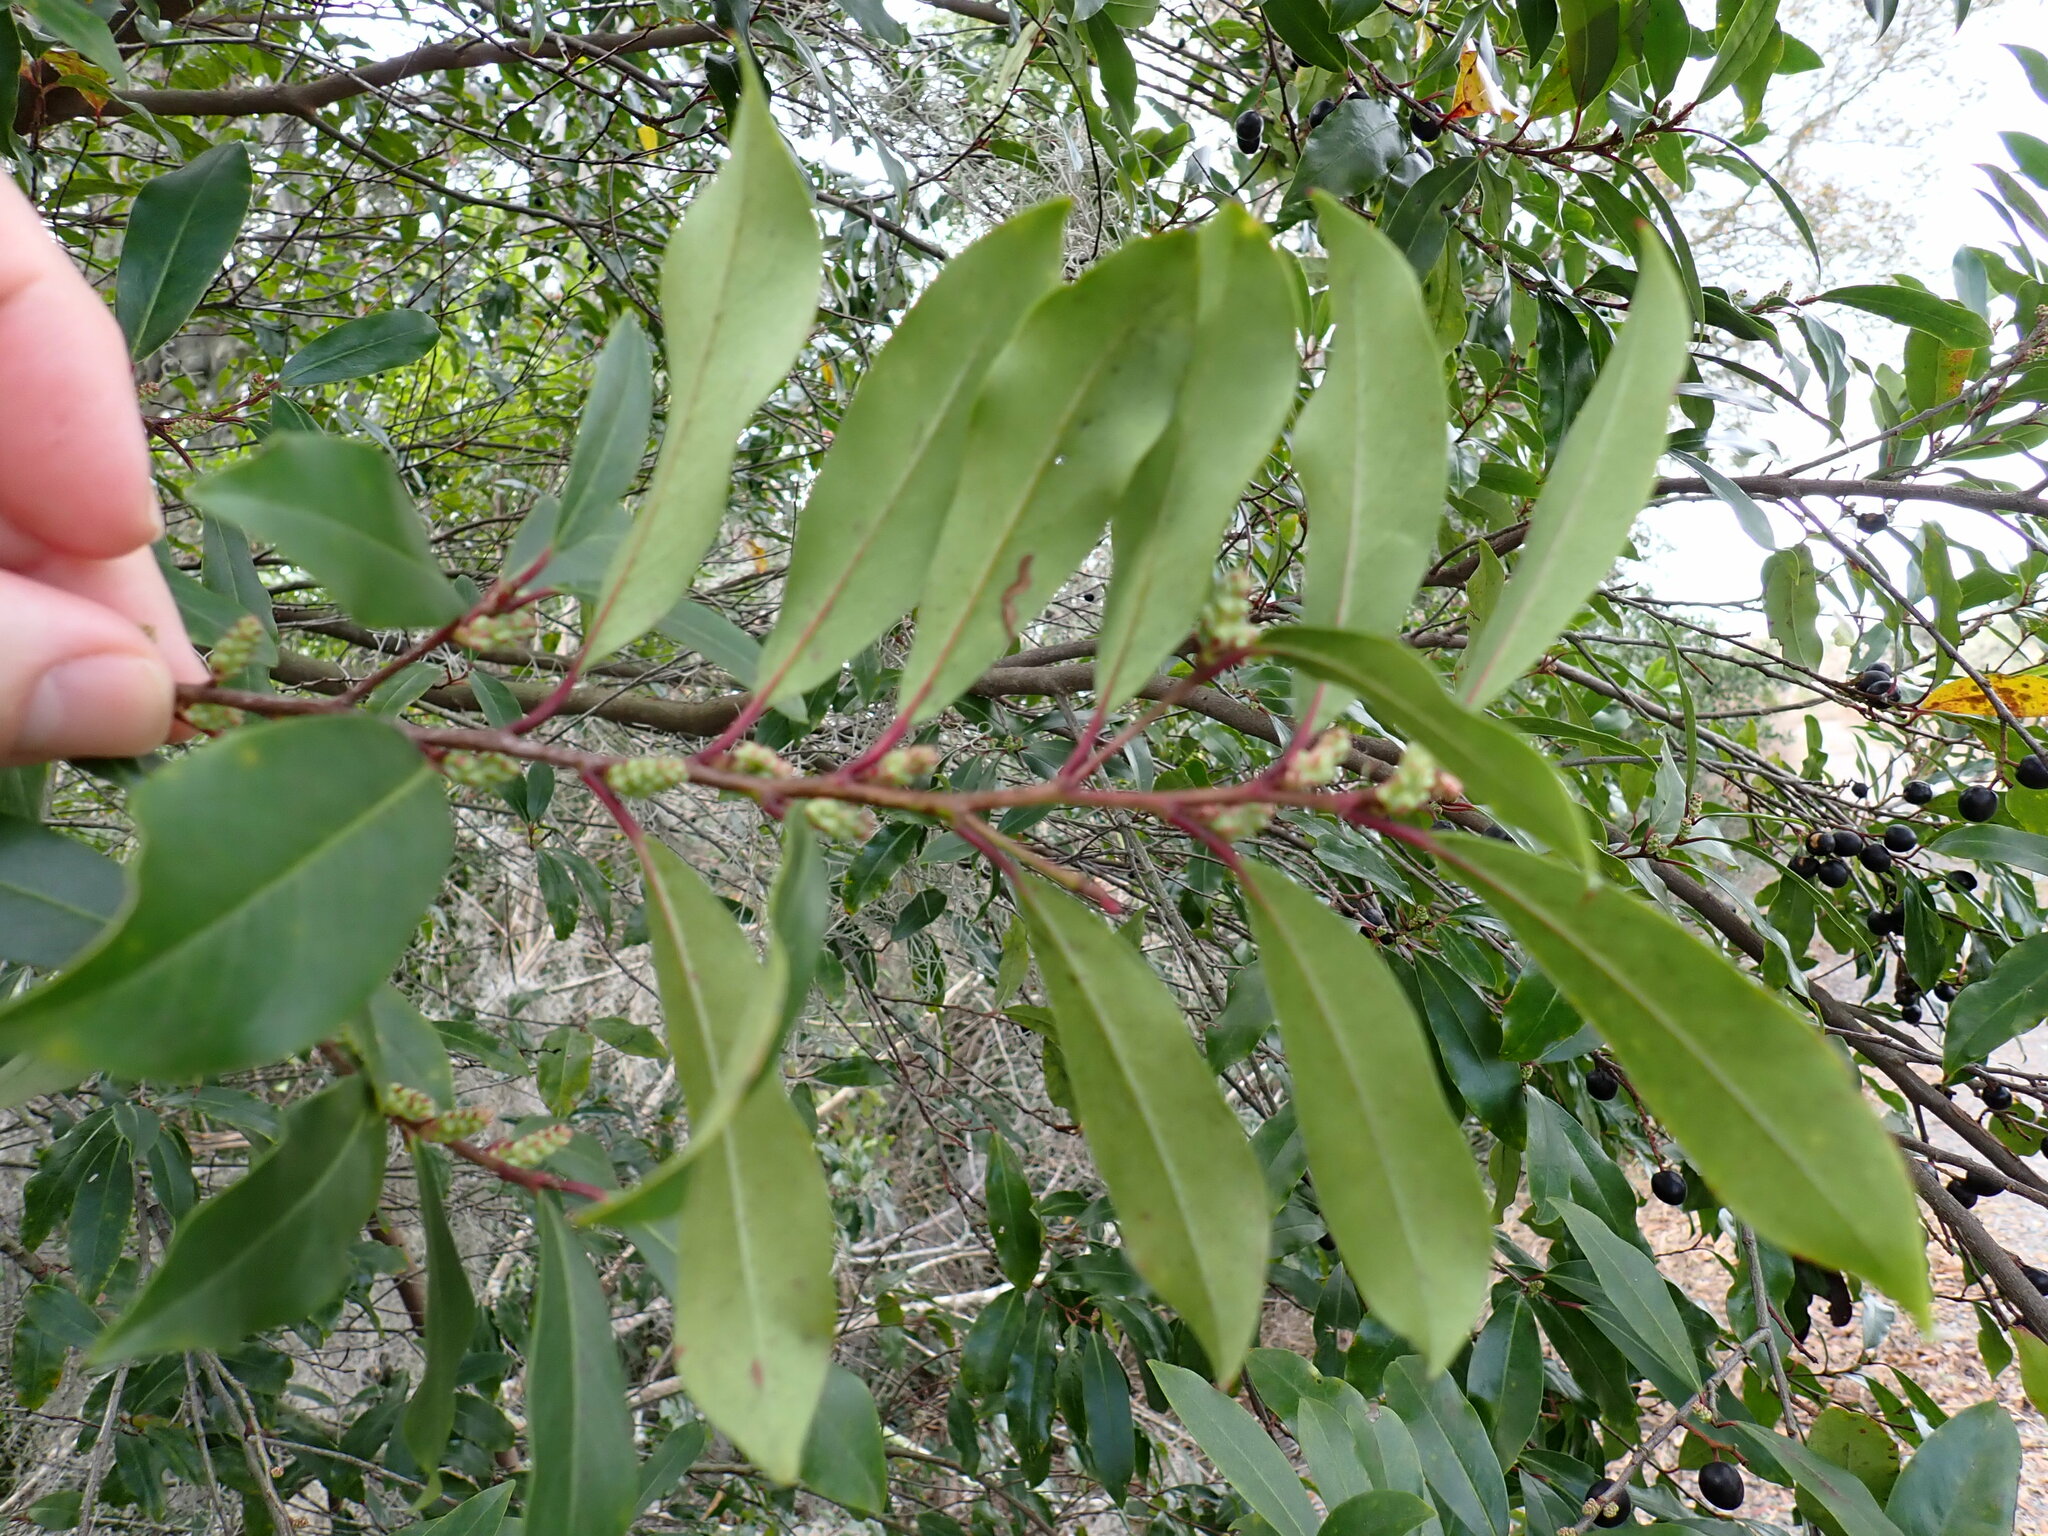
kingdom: Plantae
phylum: Tracheophyta
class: Magnoliopsida
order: Rosales
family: Rosaceae
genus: Prunus
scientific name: Prunus caroliniana
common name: Carolina laurel cherry
